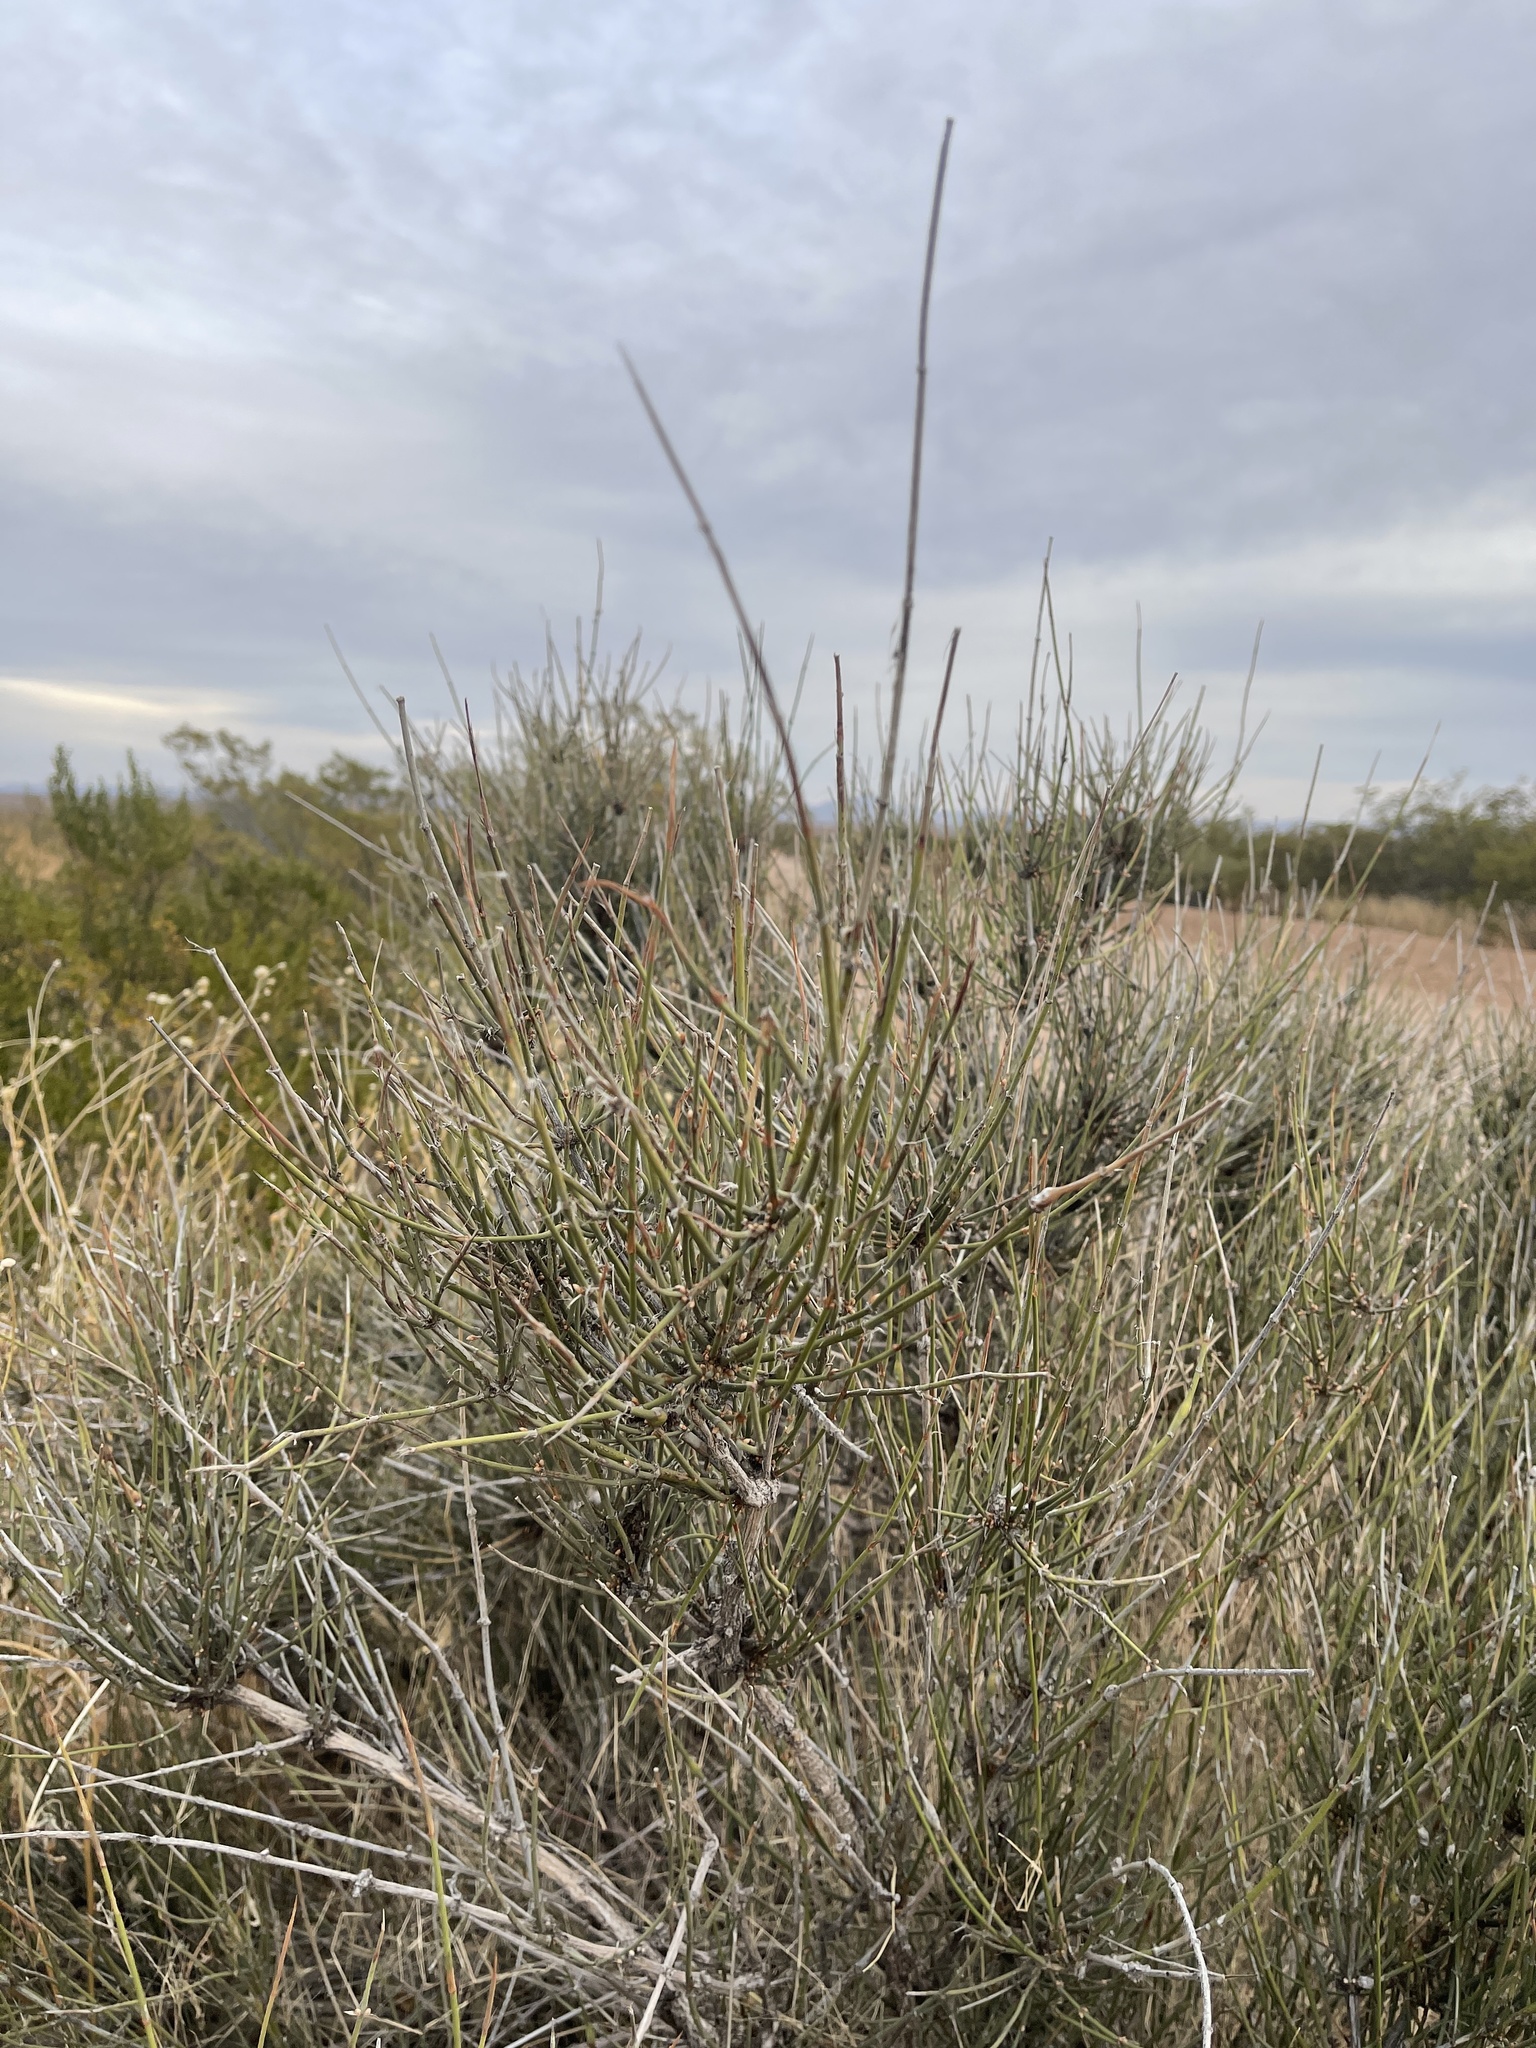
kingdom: Plantae
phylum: Tracheophyta
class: Gnetopsida
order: Ephedrales
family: Ephedraceae
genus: Ephedra
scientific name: Ephedra trifurca
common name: Mexican-tea
